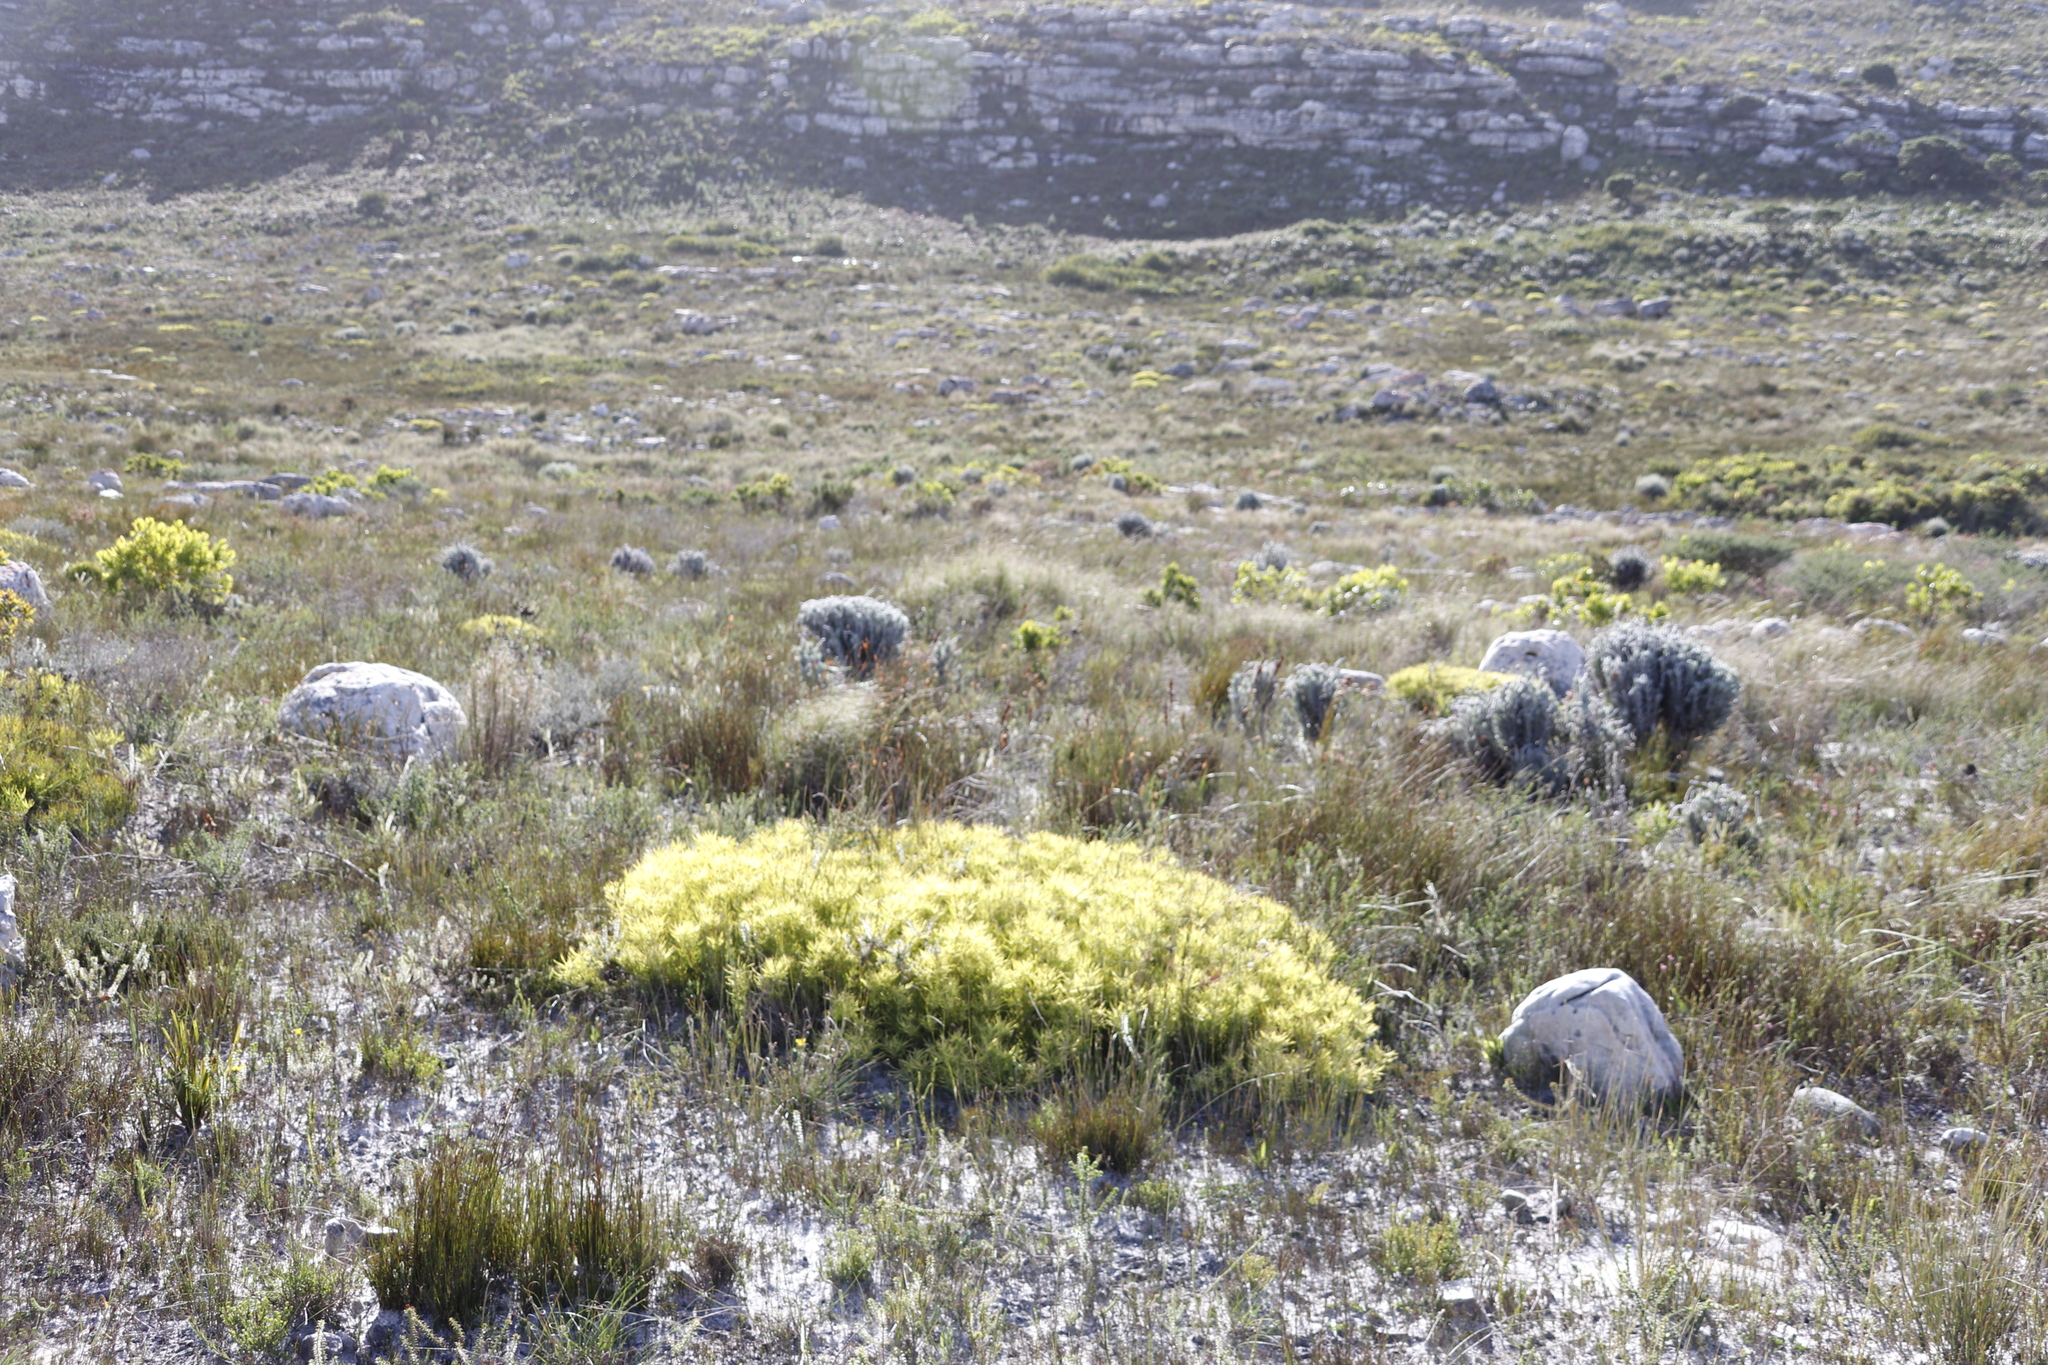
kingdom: Plantae
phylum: Tracheophyta
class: Magnoliopsida
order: Proteales
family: Proteaceae
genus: Leucadendron
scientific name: Leucadendron salignum
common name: Common sunshine conebush
